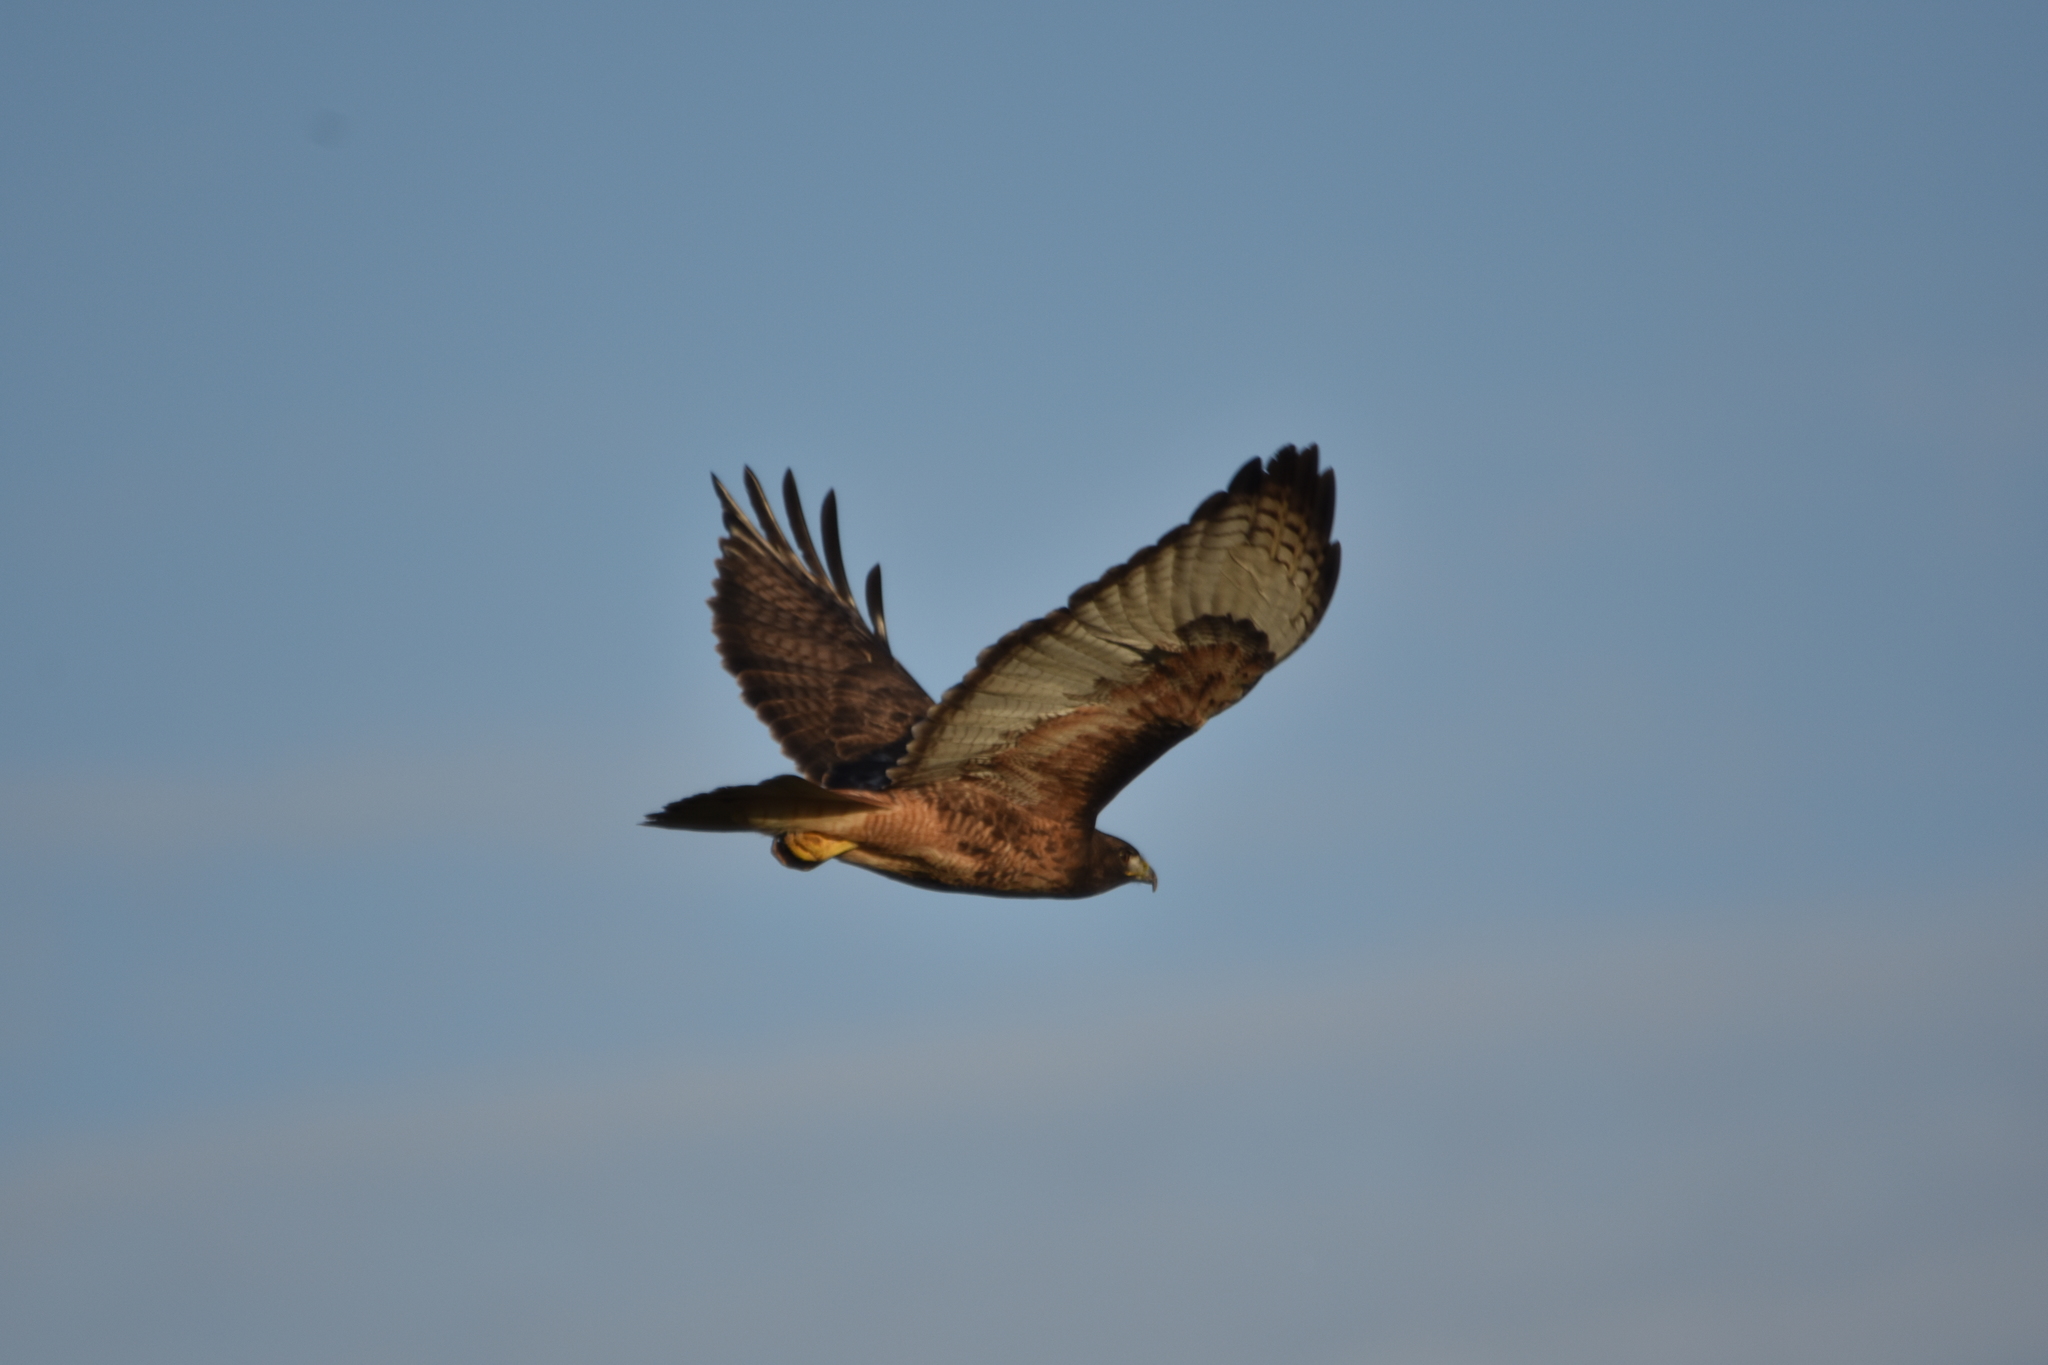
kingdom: Animalia
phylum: Chordata
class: Aves
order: Accipitriformes
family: Accipitridae
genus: Buteo
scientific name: Buteo jamaicensis
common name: Red-tailed hawk
